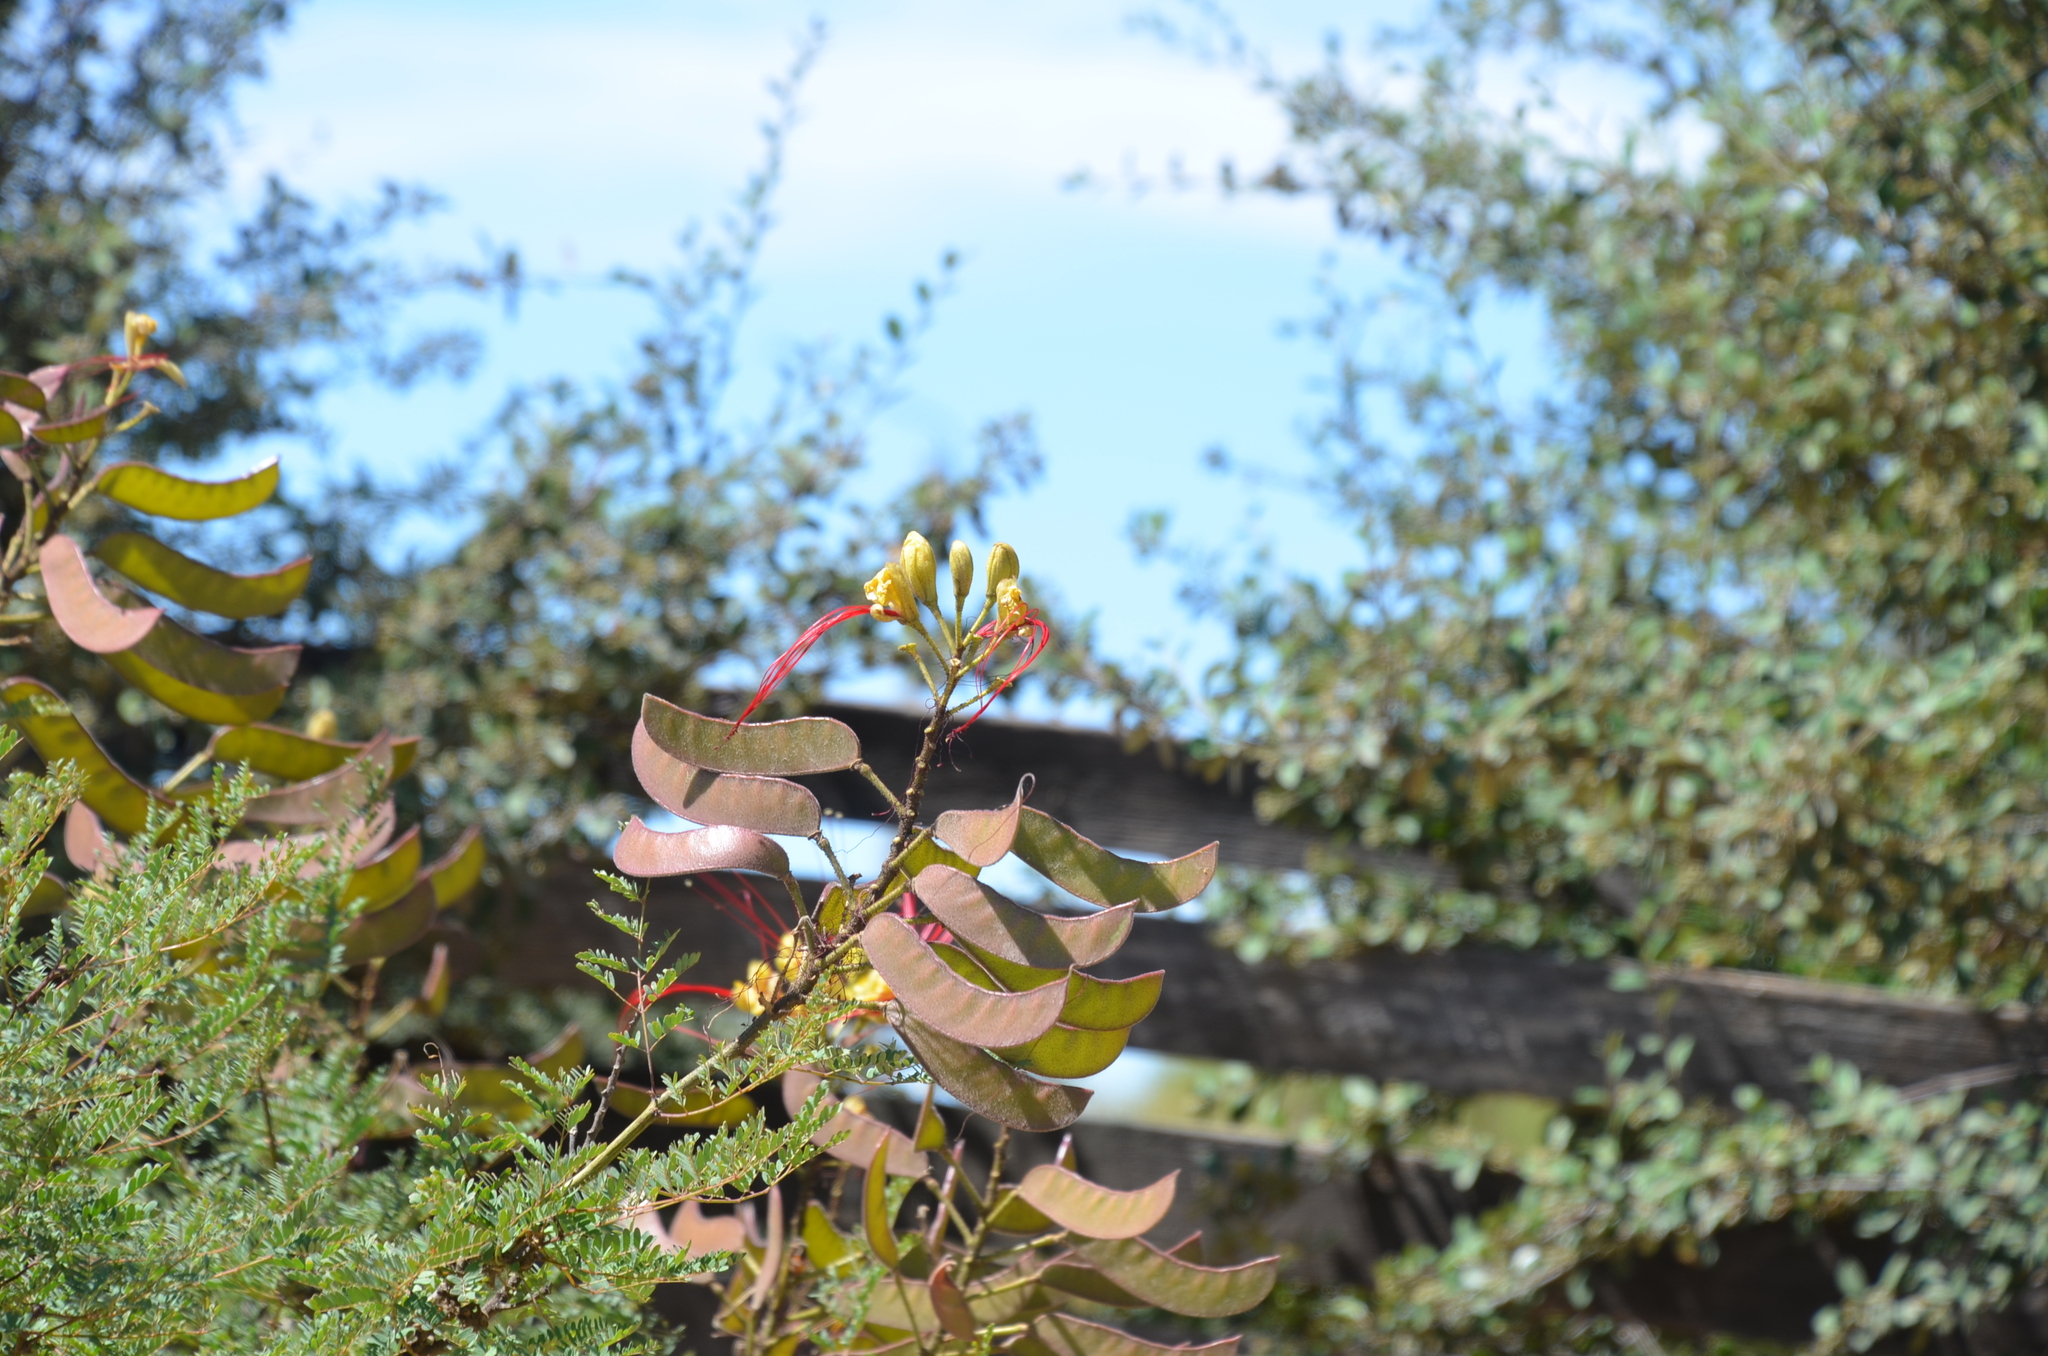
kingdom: Plantae
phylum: Tracheophyta
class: Magnoliopsida
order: Fabales
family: Fabaceae
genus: Erythrostemon
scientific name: Erythrostemon gilliesii
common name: Bird-of-paradise shrub
